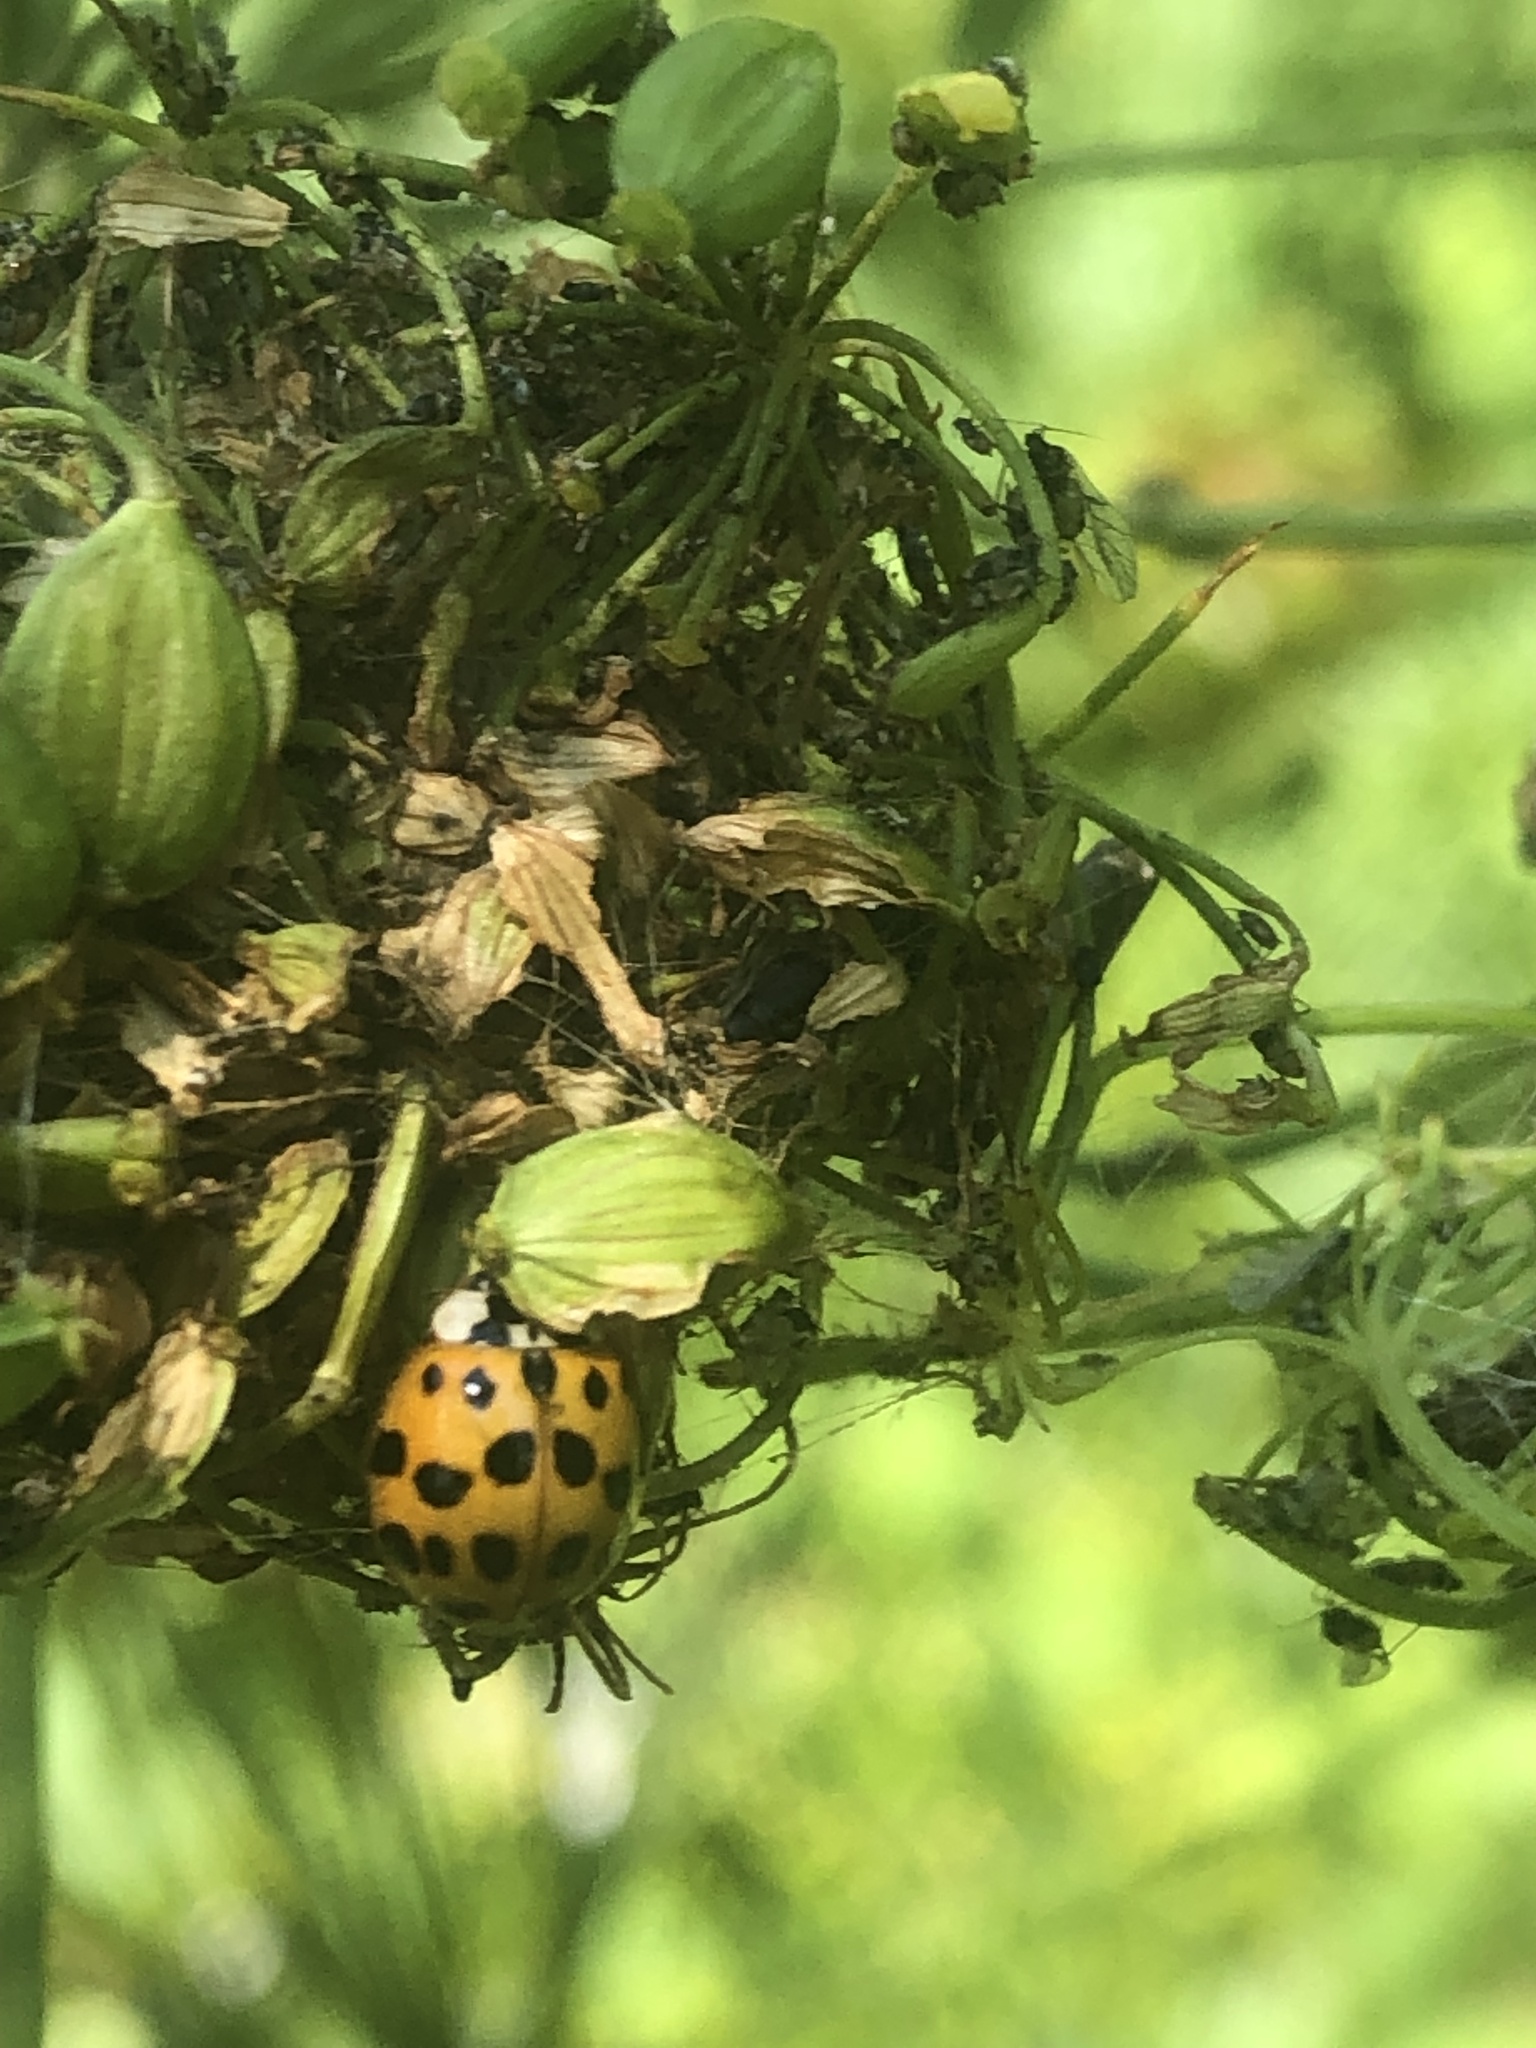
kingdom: Animalia
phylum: Arthropoda
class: Insecta
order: Coleoptera
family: Coccinellidae
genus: Harmonia
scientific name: Harmonia axyridis
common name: Harlequin ladybird
